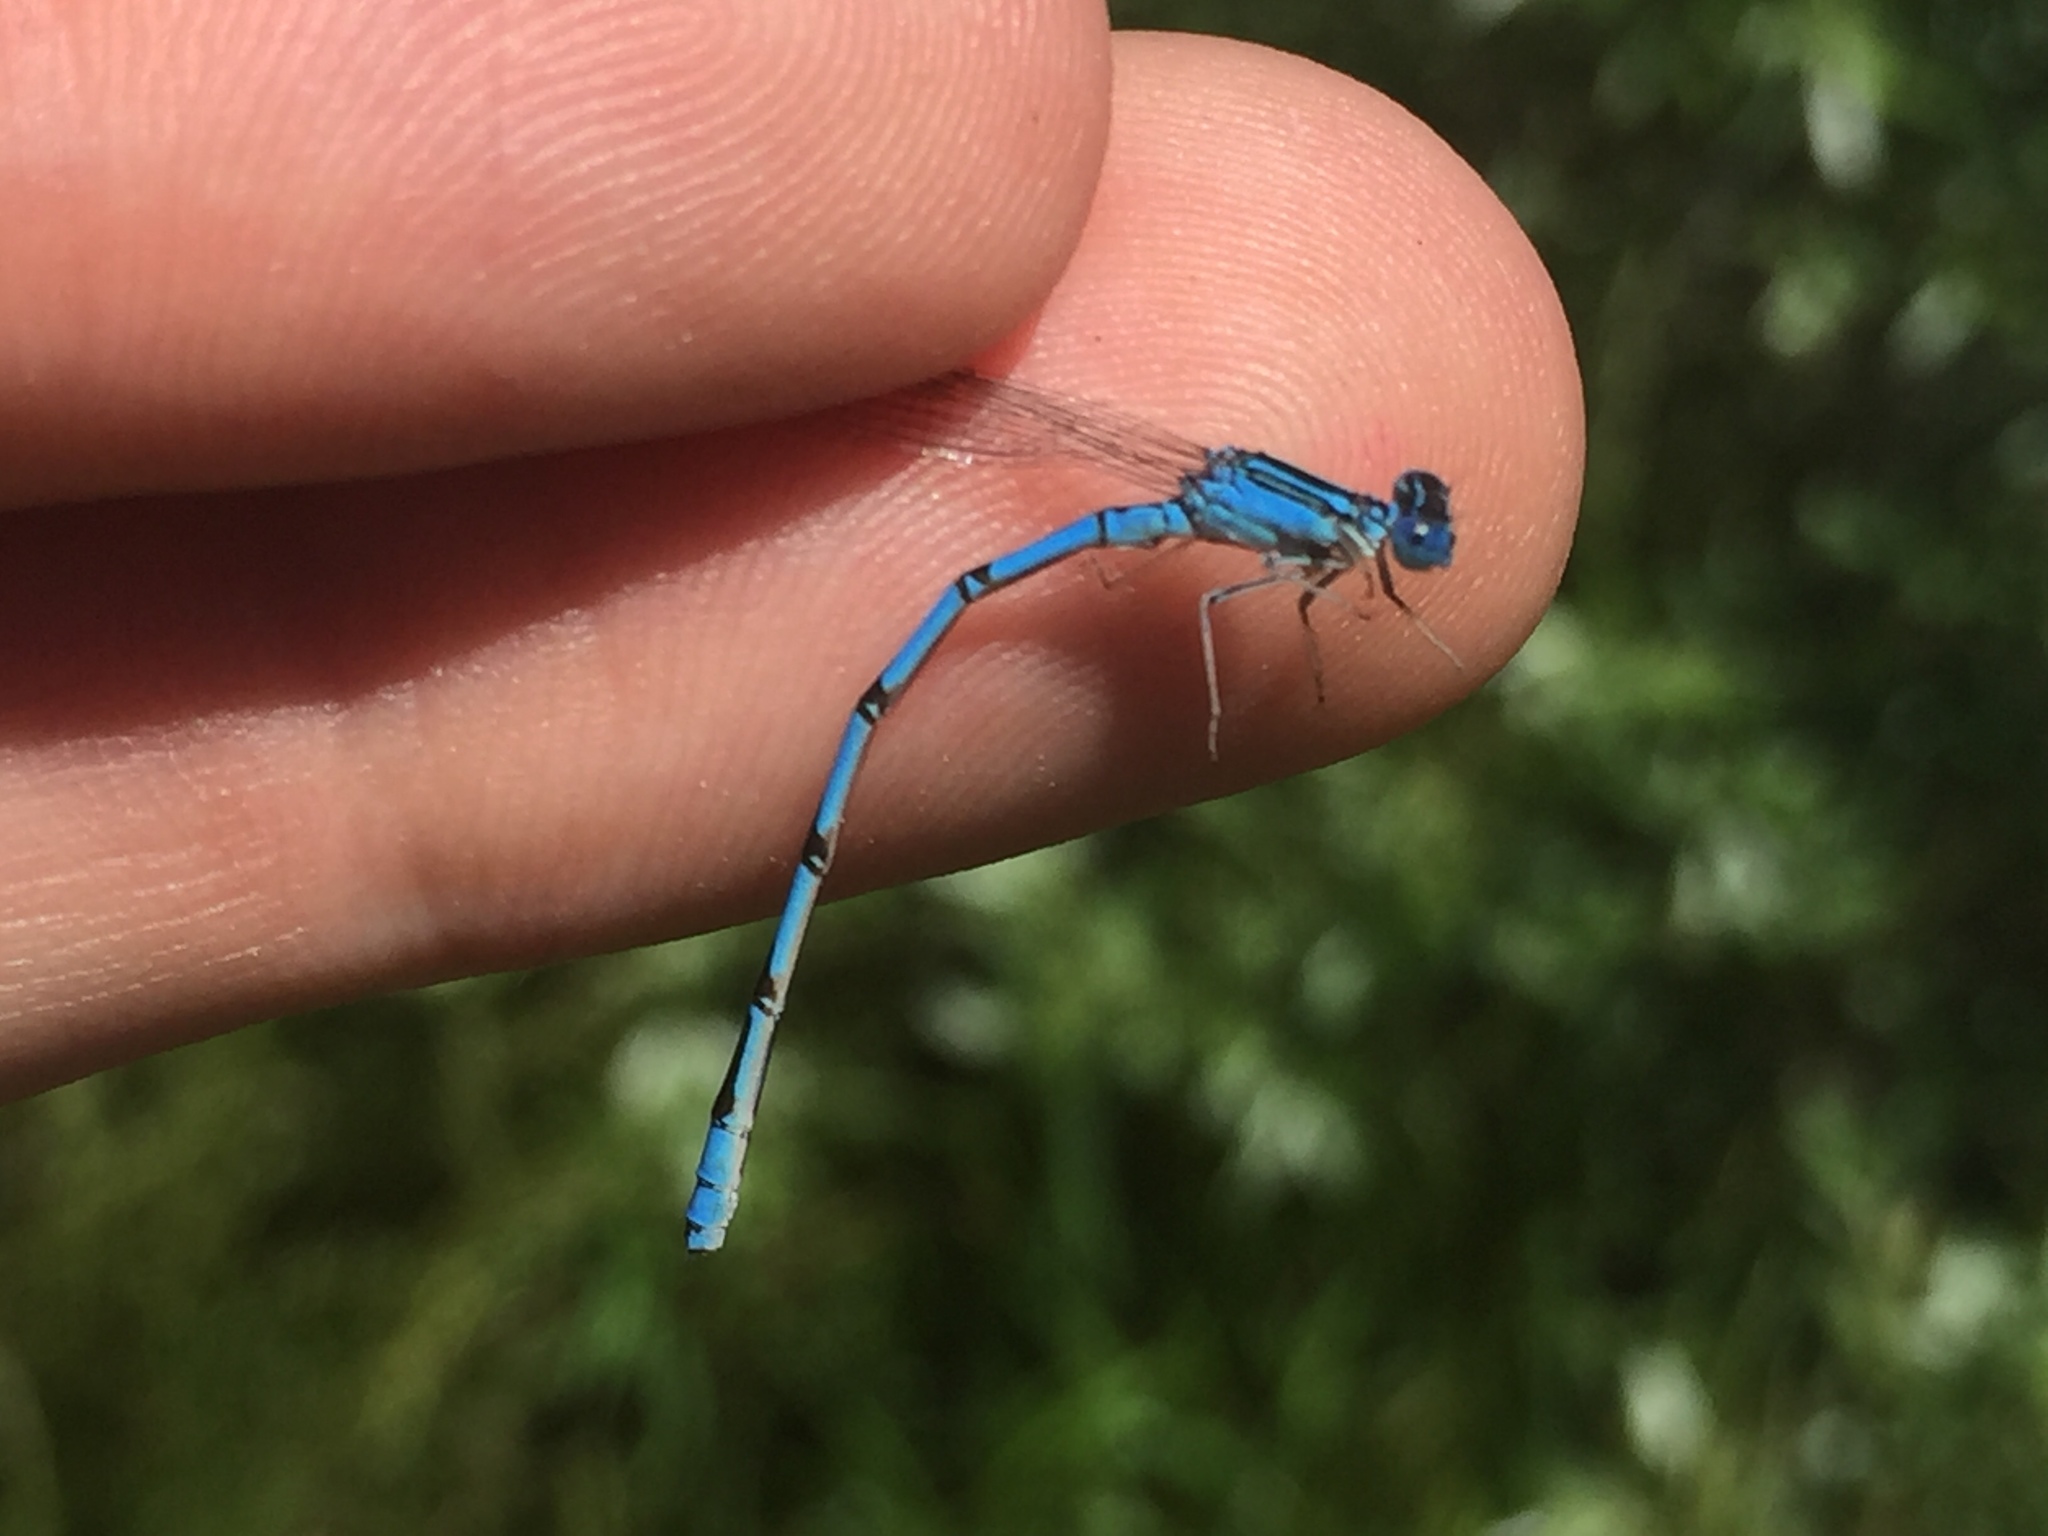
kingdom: Animalia
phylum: Arthropoda
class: Insecta
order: Odonata
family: Coenagrionidae
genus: Enallagma
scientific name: Enallagma basidens
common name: Double-striped bluet
